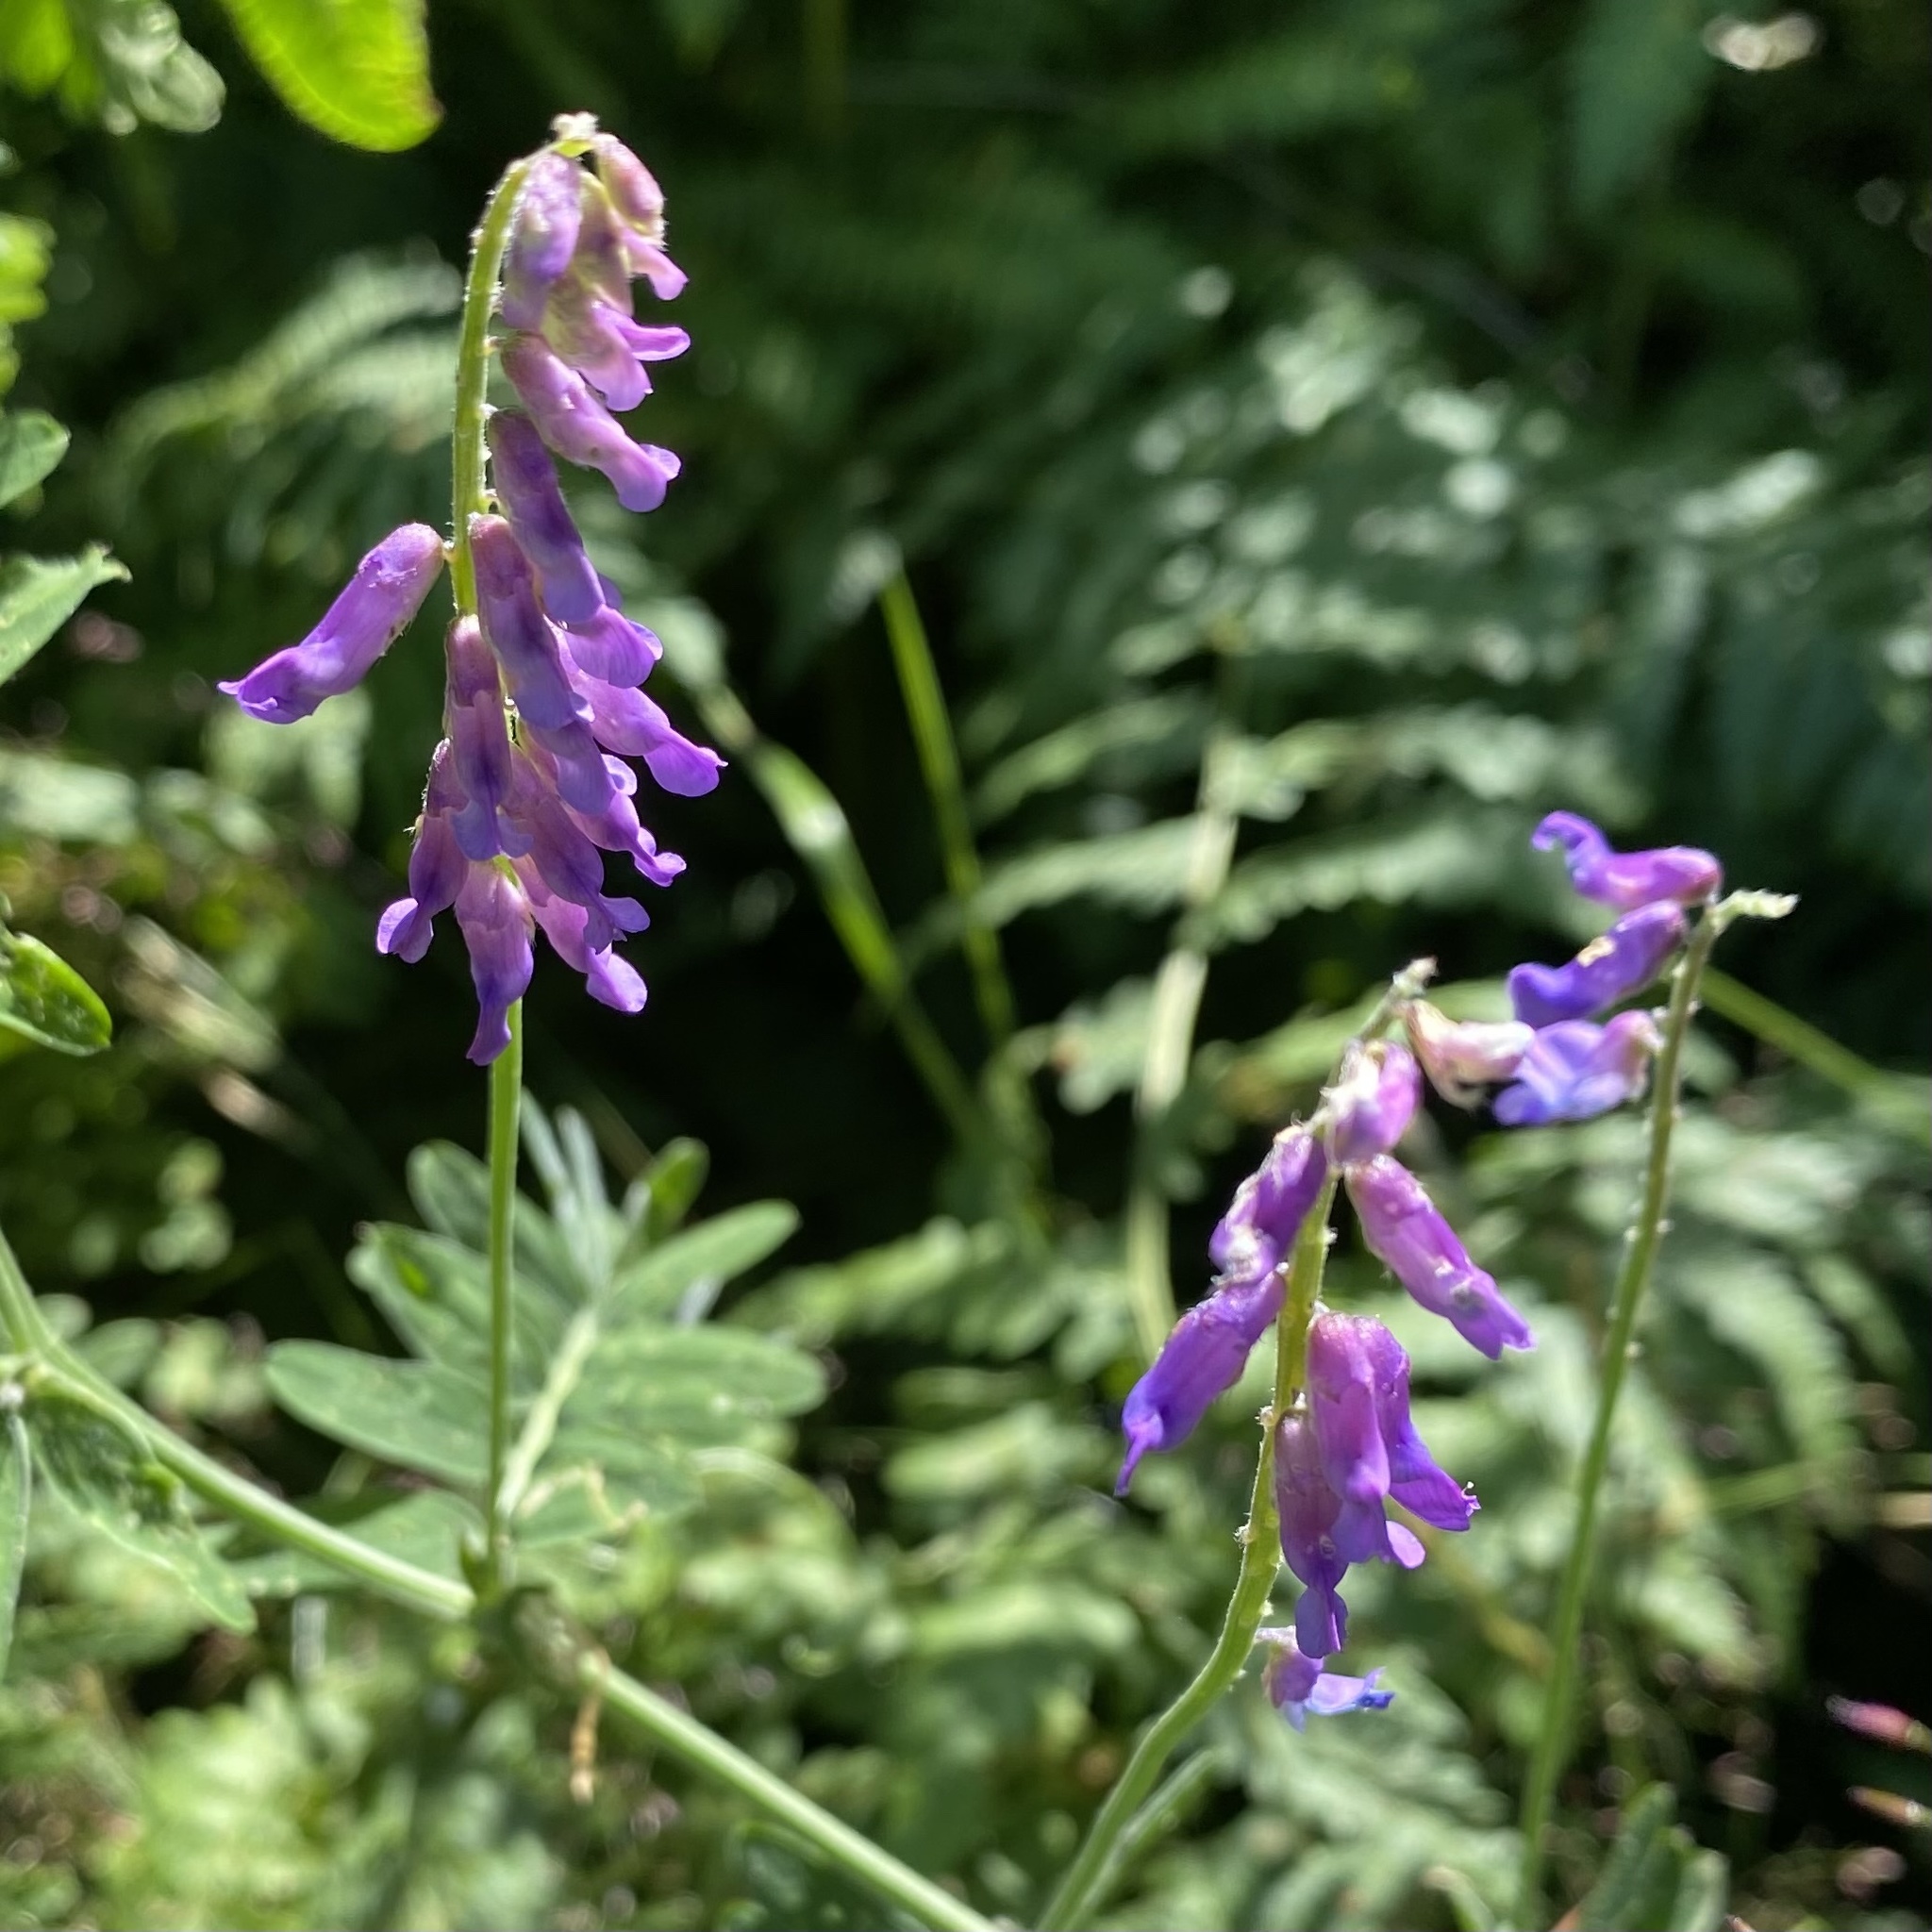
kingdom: Plantae
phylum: Tracheophyta
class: Magnoliopsida
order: Fabales
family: Fabaceae
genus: Vicia
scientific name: Vicia cracca
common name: Bird vetch
